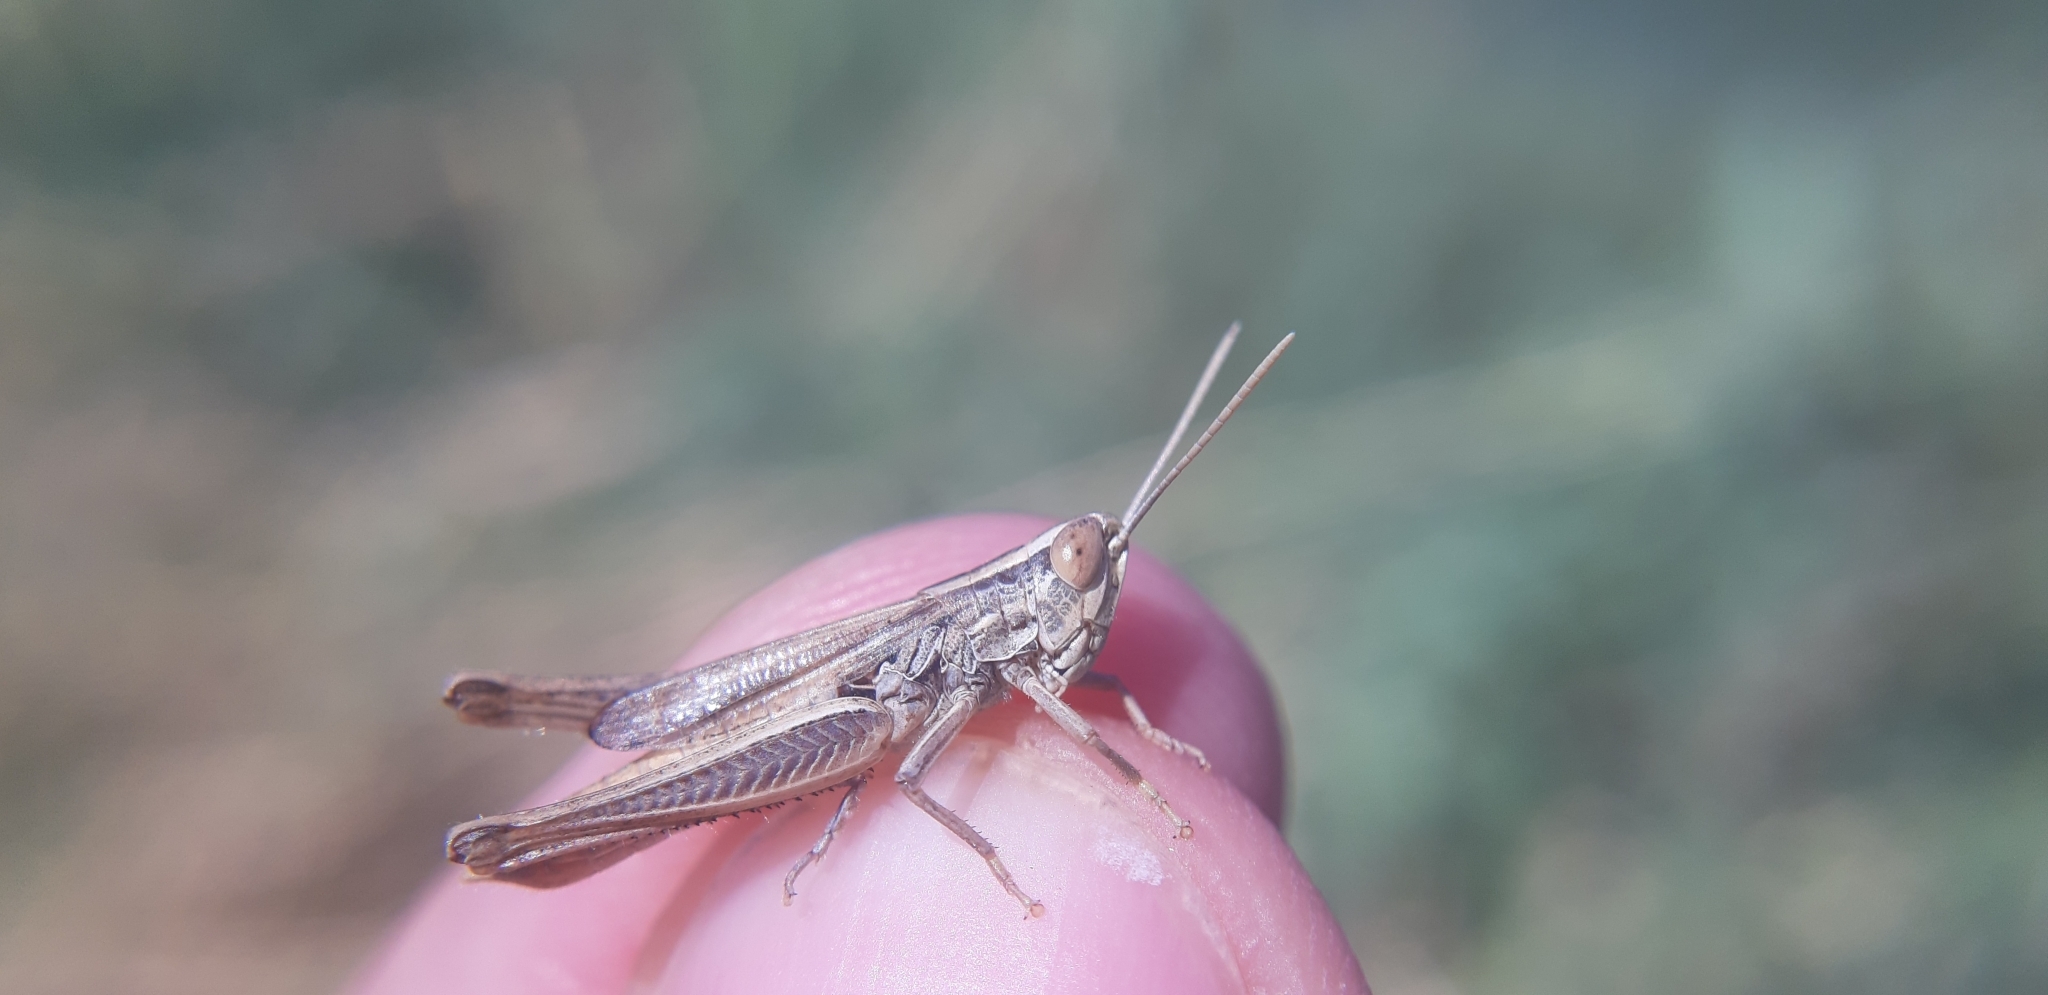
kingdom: Animalia
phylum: Arthropoda
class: Insecta
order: Orthoptera
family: Acrididae
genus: Euchorthippus
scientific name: Euchorthippus declivus
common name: Common straw grasshopper
